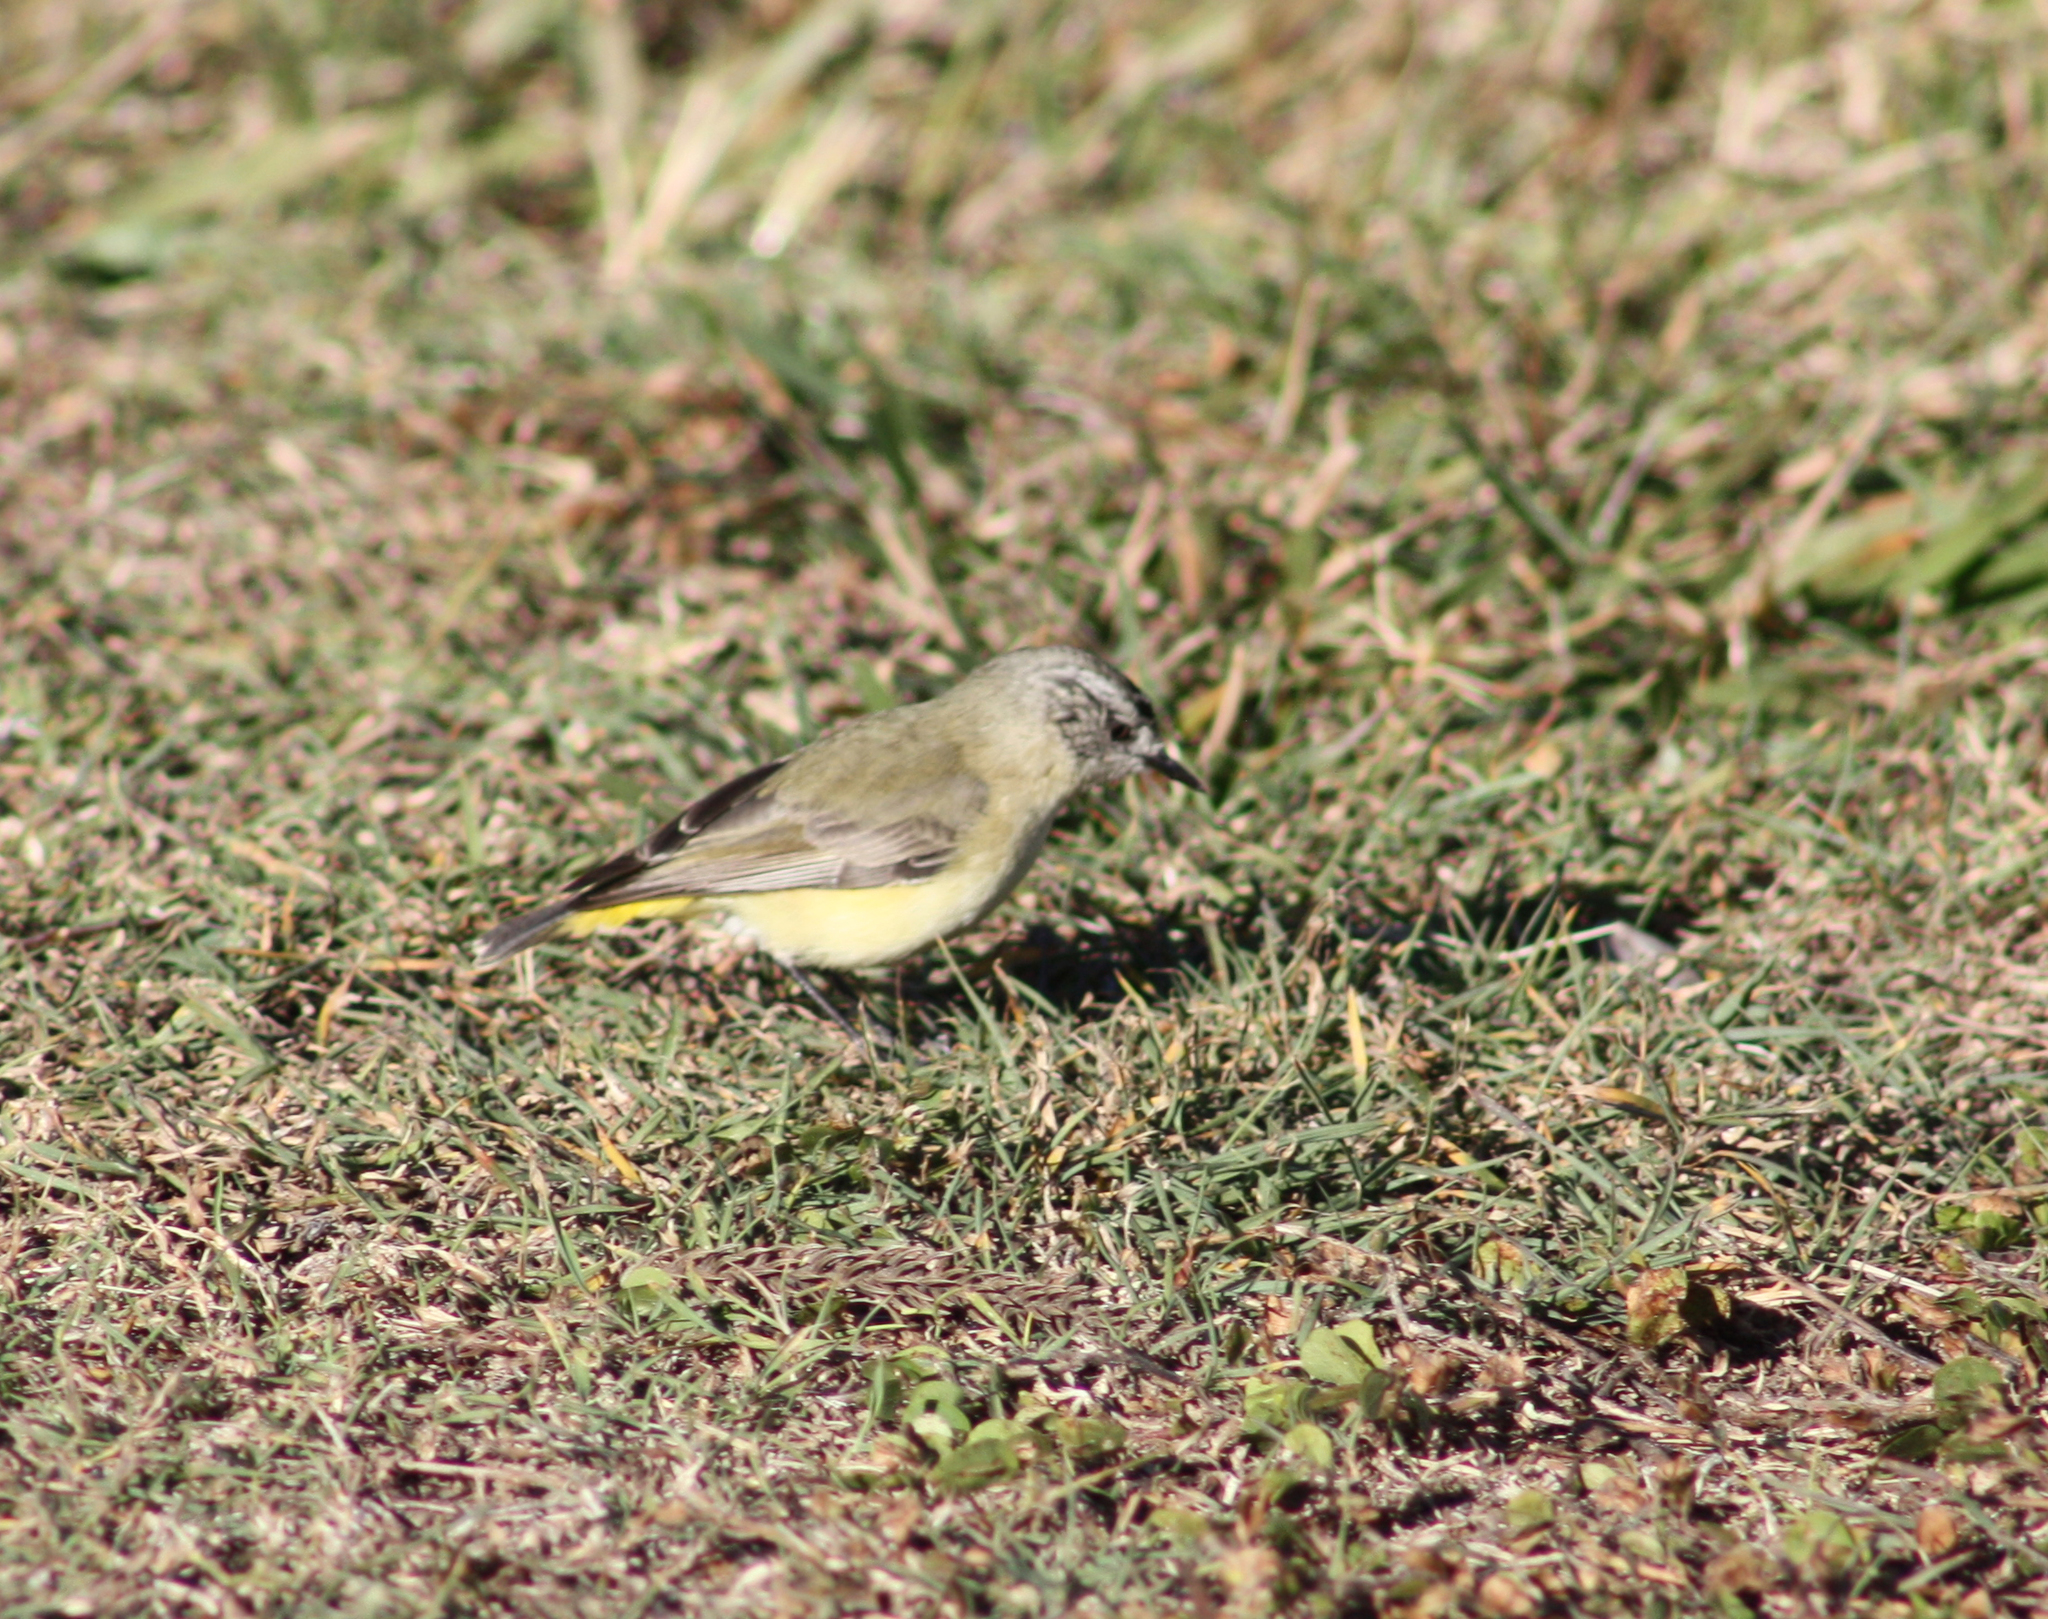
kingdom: Animalia
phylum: Chordata
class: Aves
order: Passeriformes
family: Acanthizidae
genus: Acanthiza
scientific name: Acanthiza chrysorrhoa
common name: Yellow-rumped thornbill
